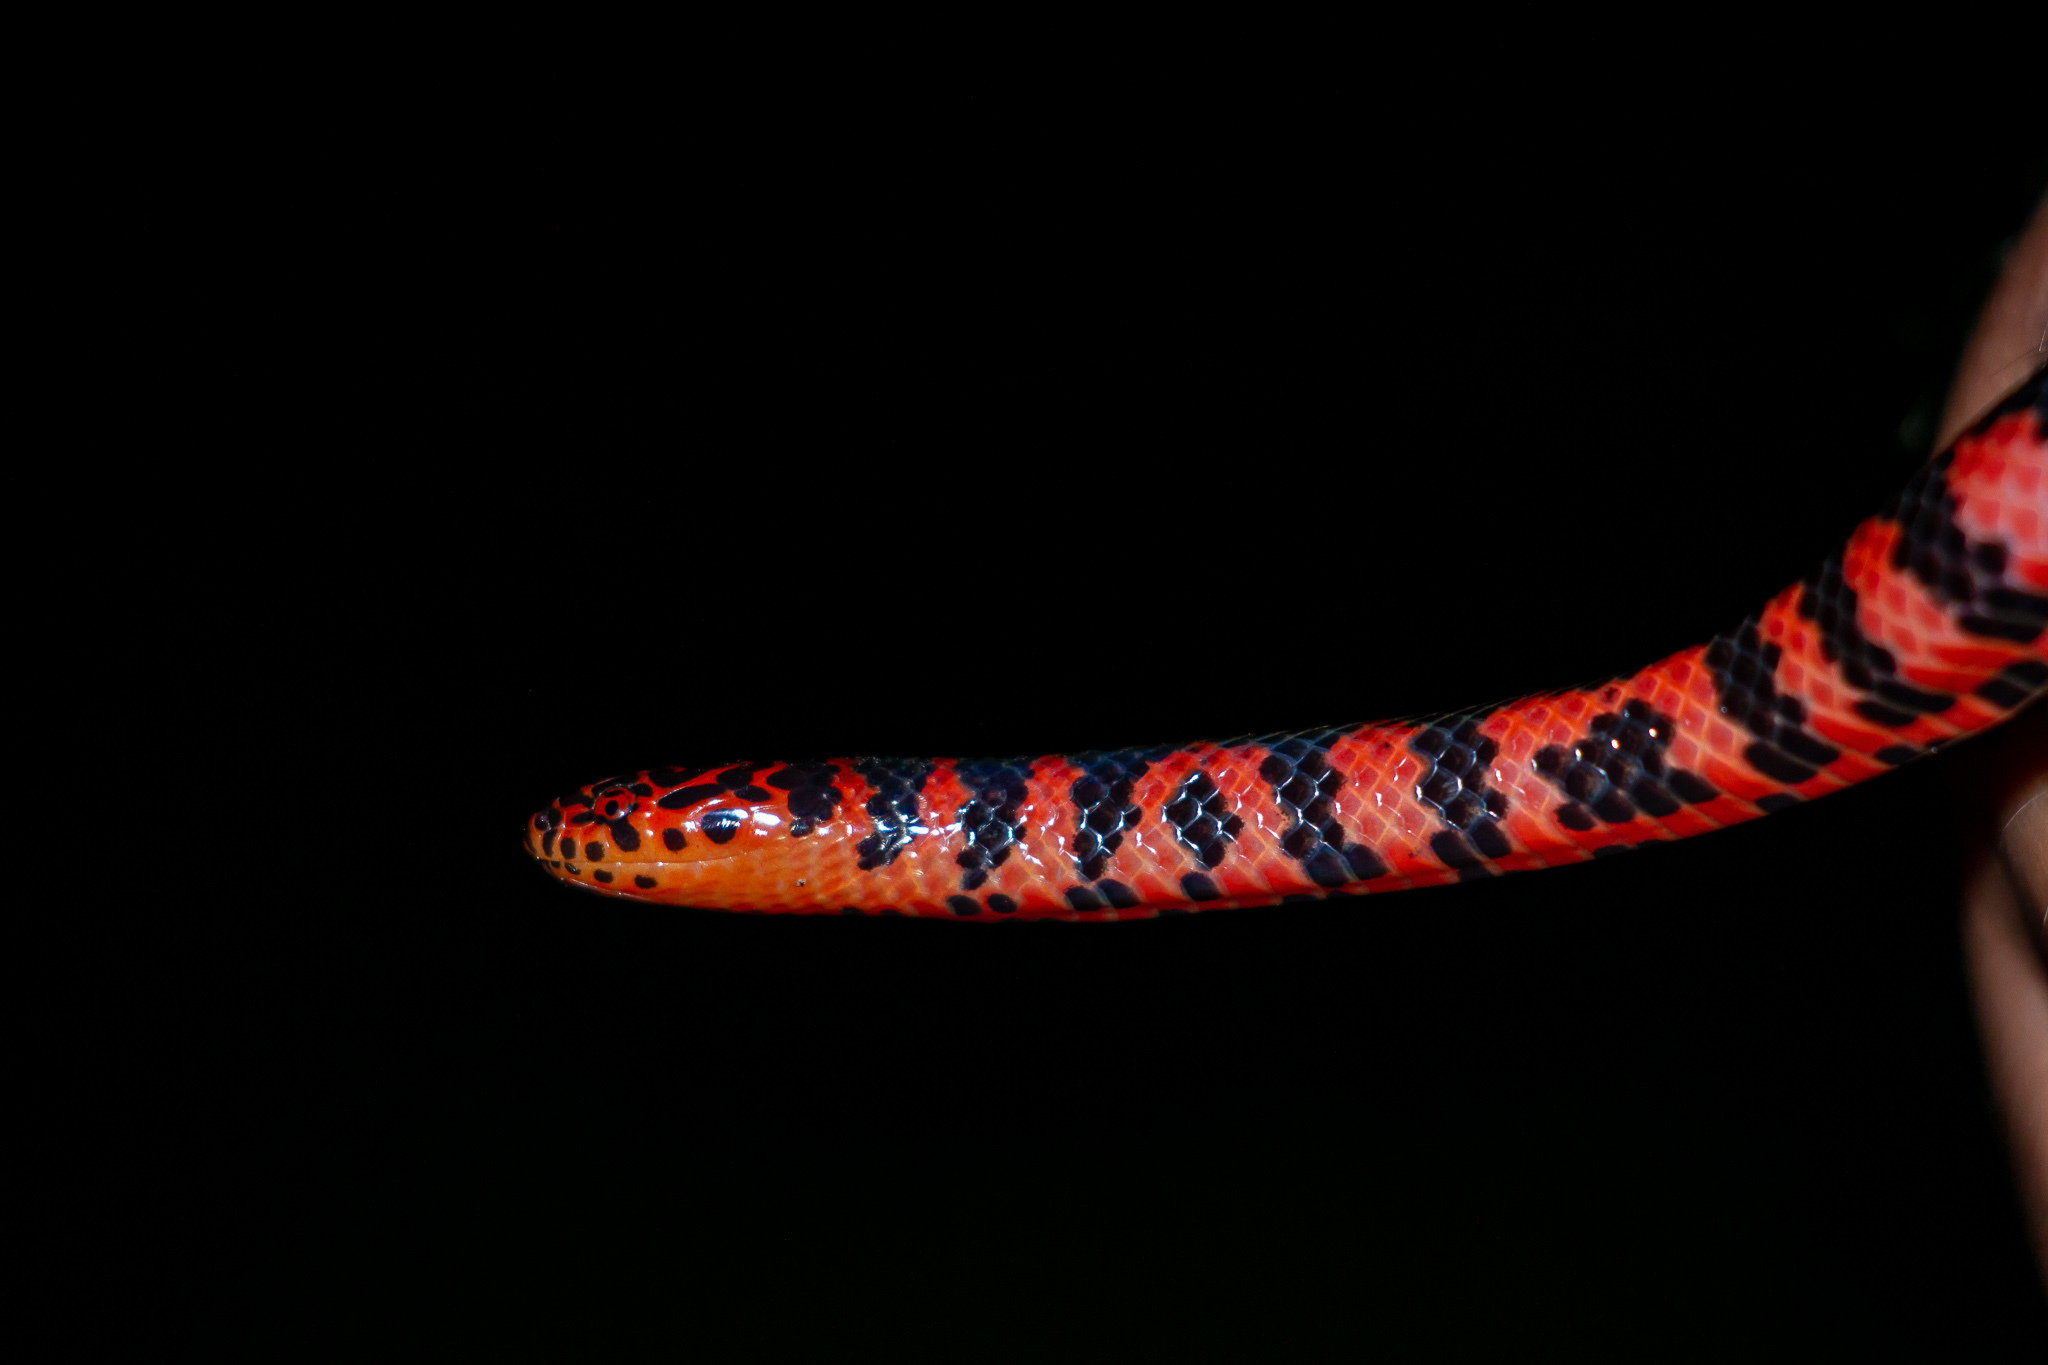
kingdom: Animalia
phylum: Chordata
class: Squamata
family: Colubridae
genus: Farancia
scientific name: Farancia abacura
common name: Mud snake
